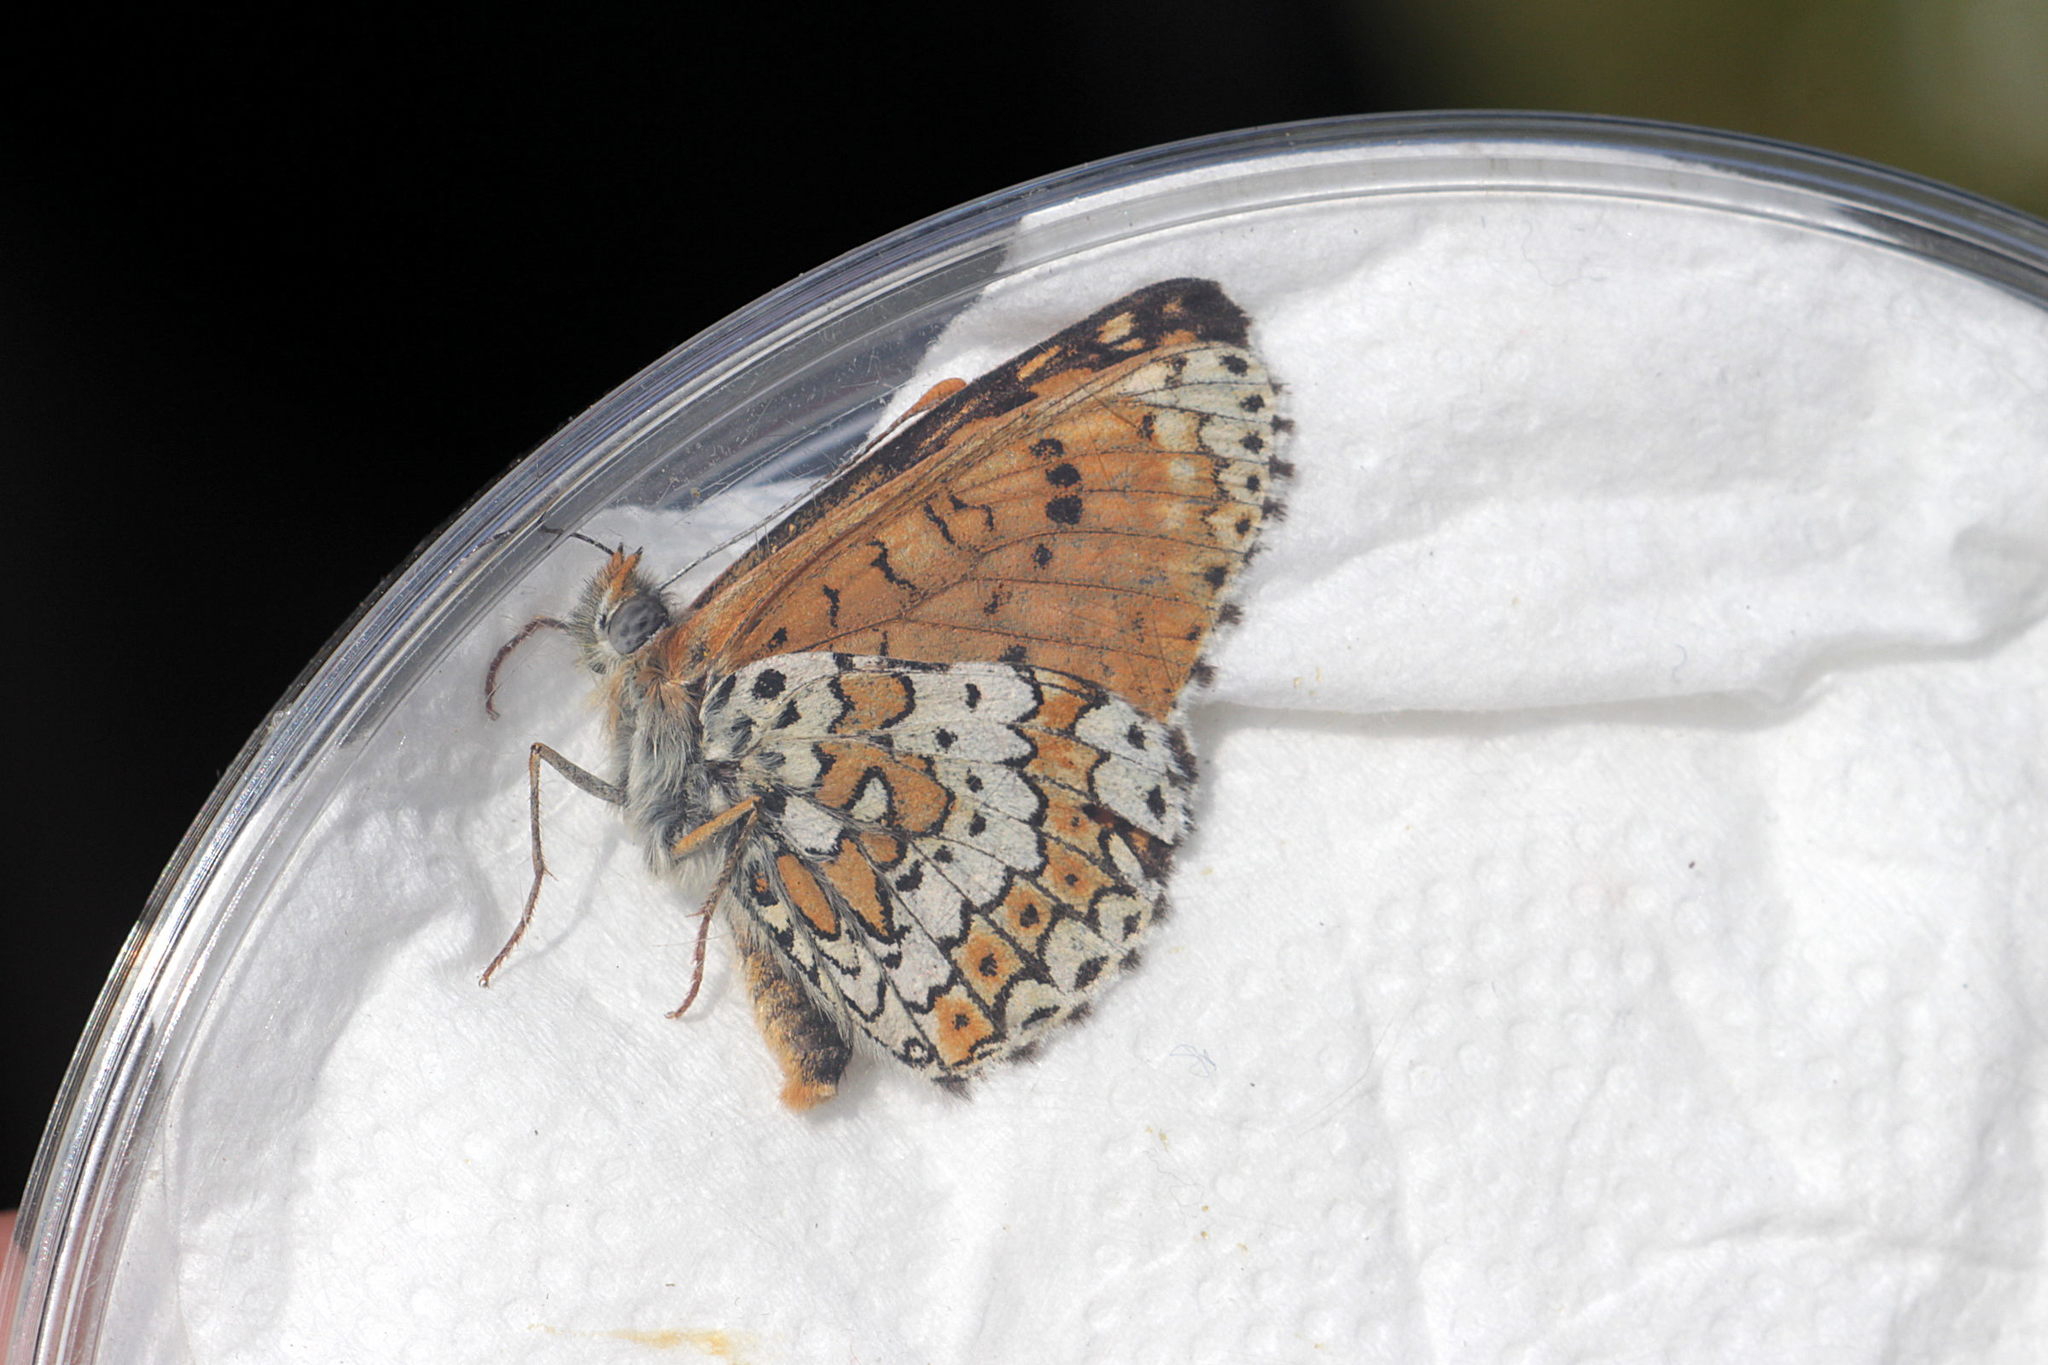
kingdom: Animalia
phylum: Arthropoda
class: Insecta
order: Lepidoptera
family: Nymphalidae
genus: Melitaea
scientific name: Melitaea cinxia
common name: Glanville fritillary
